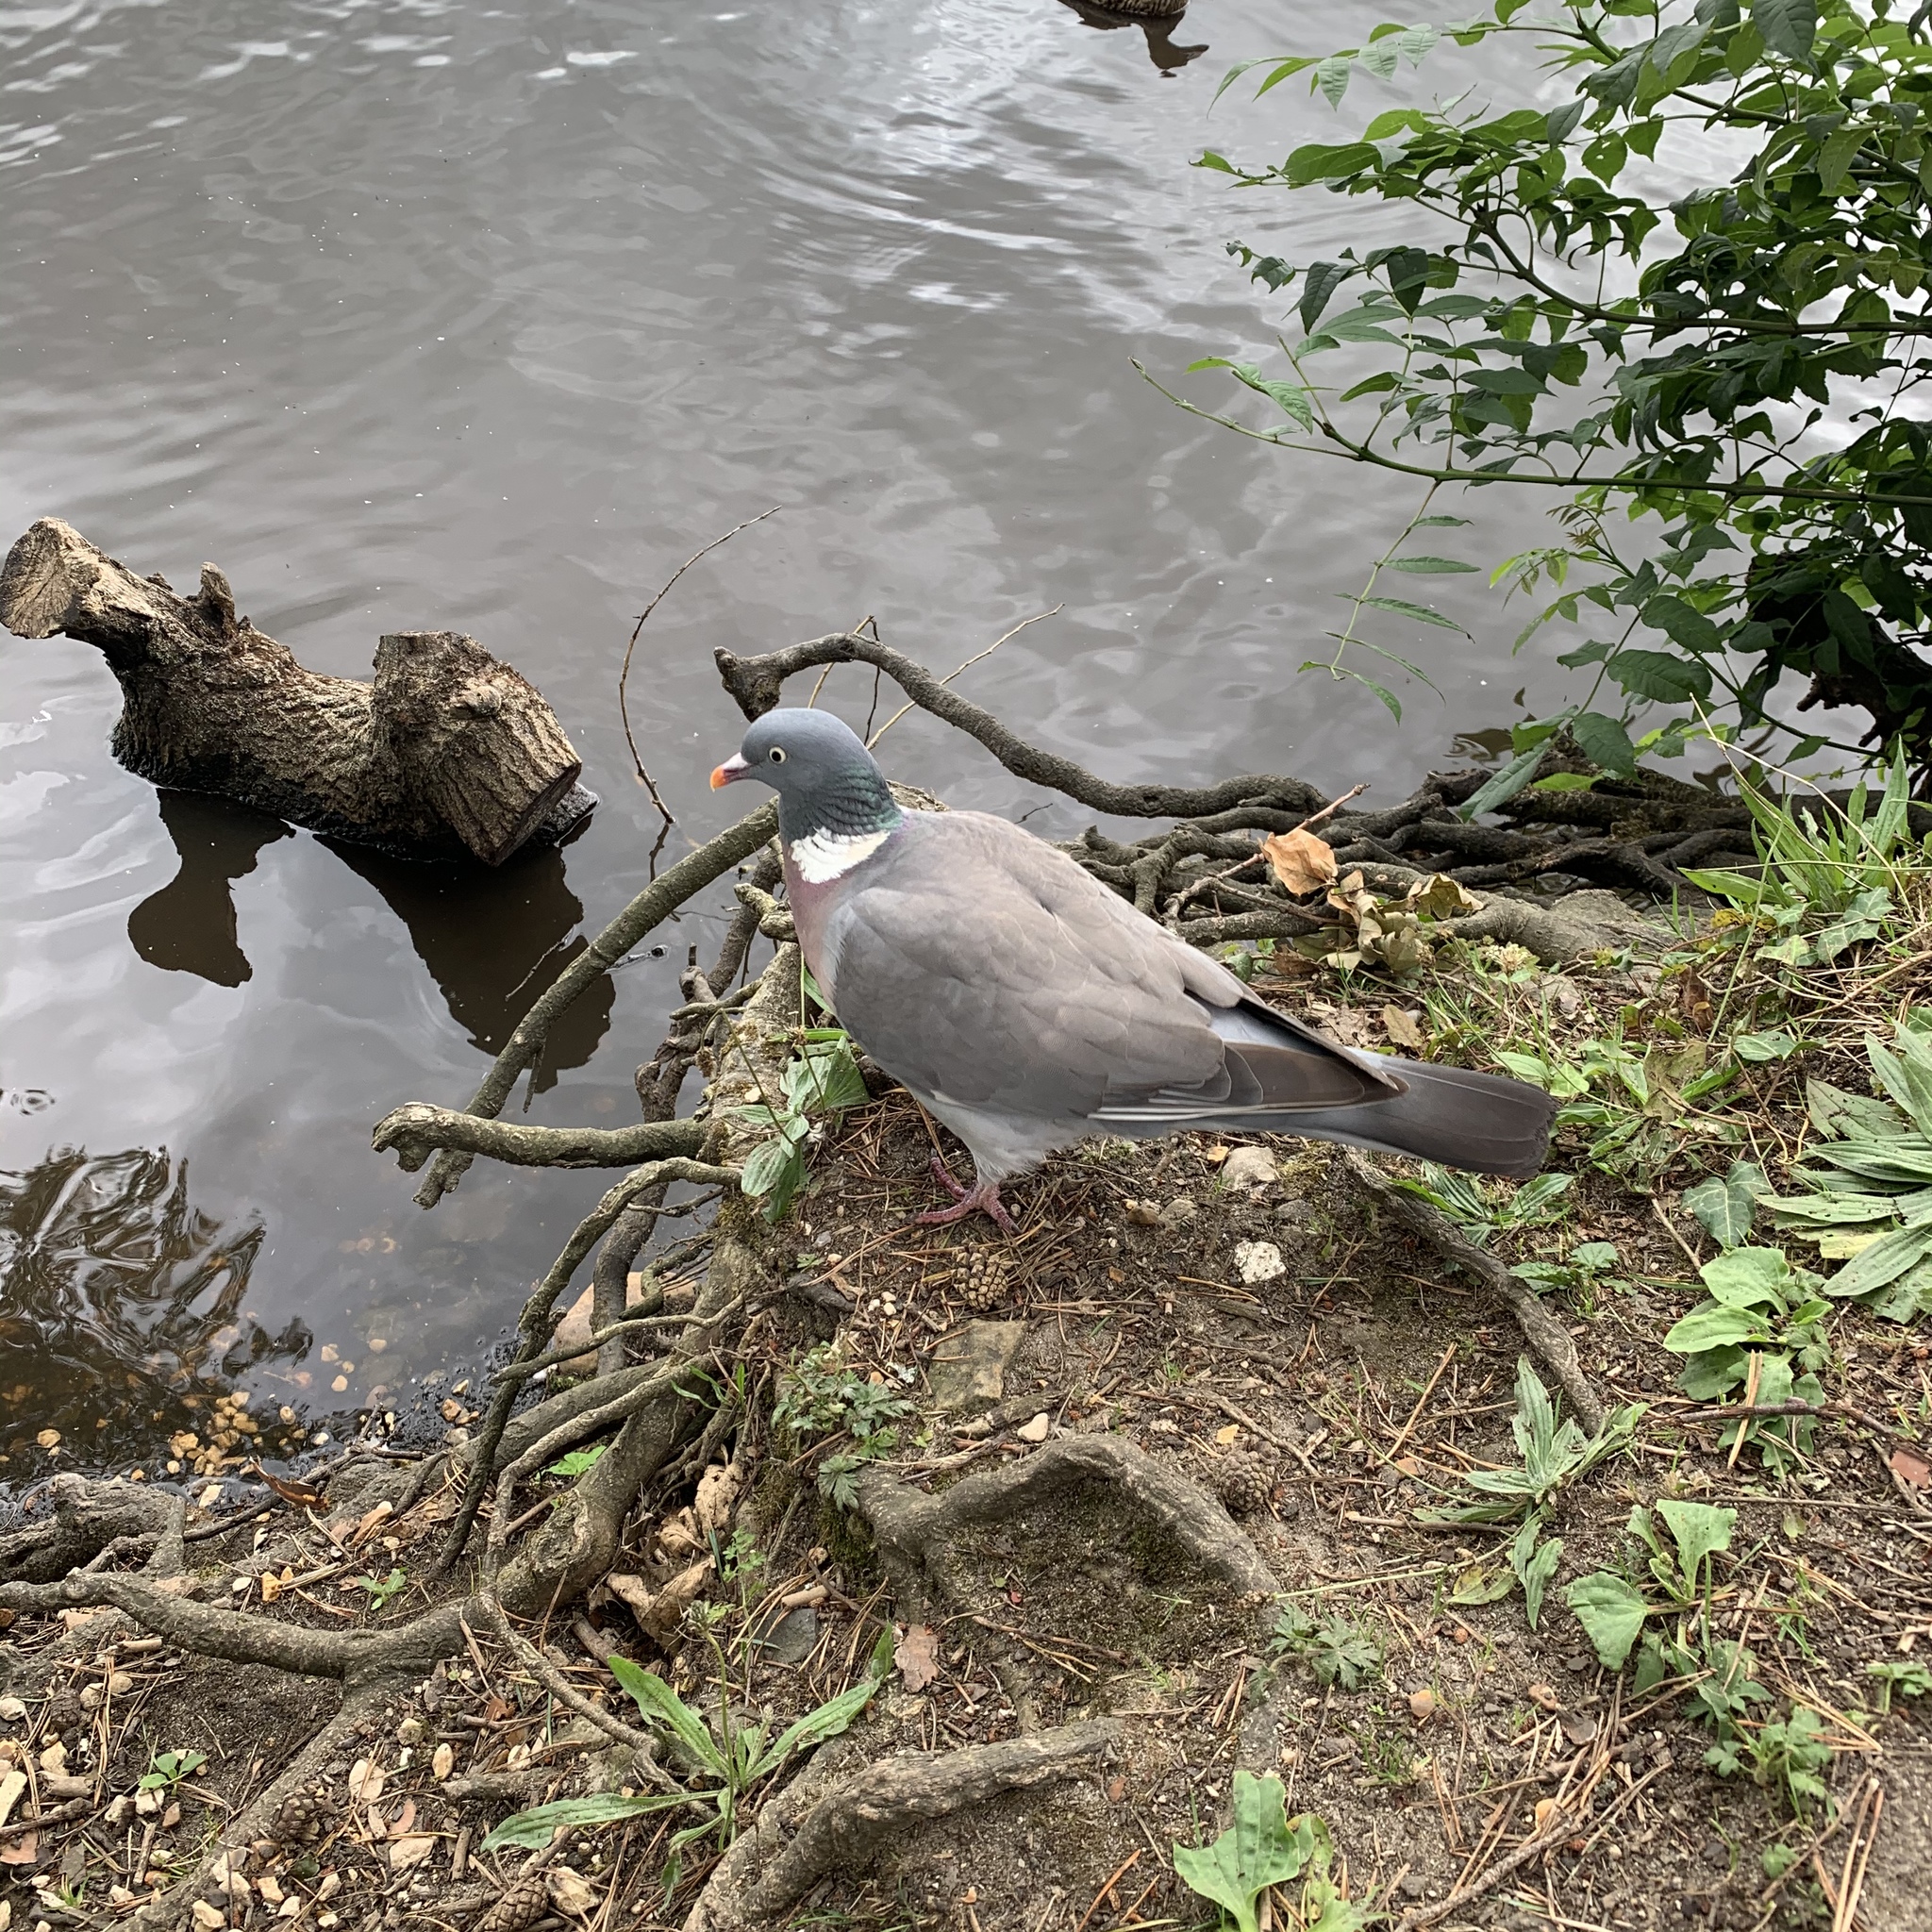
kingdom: Animalia
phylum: Chordata
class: Aves
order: Columbiformes
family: Columbidae
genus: Columba
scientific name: Columba palumbus
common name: Common wood pigeon
